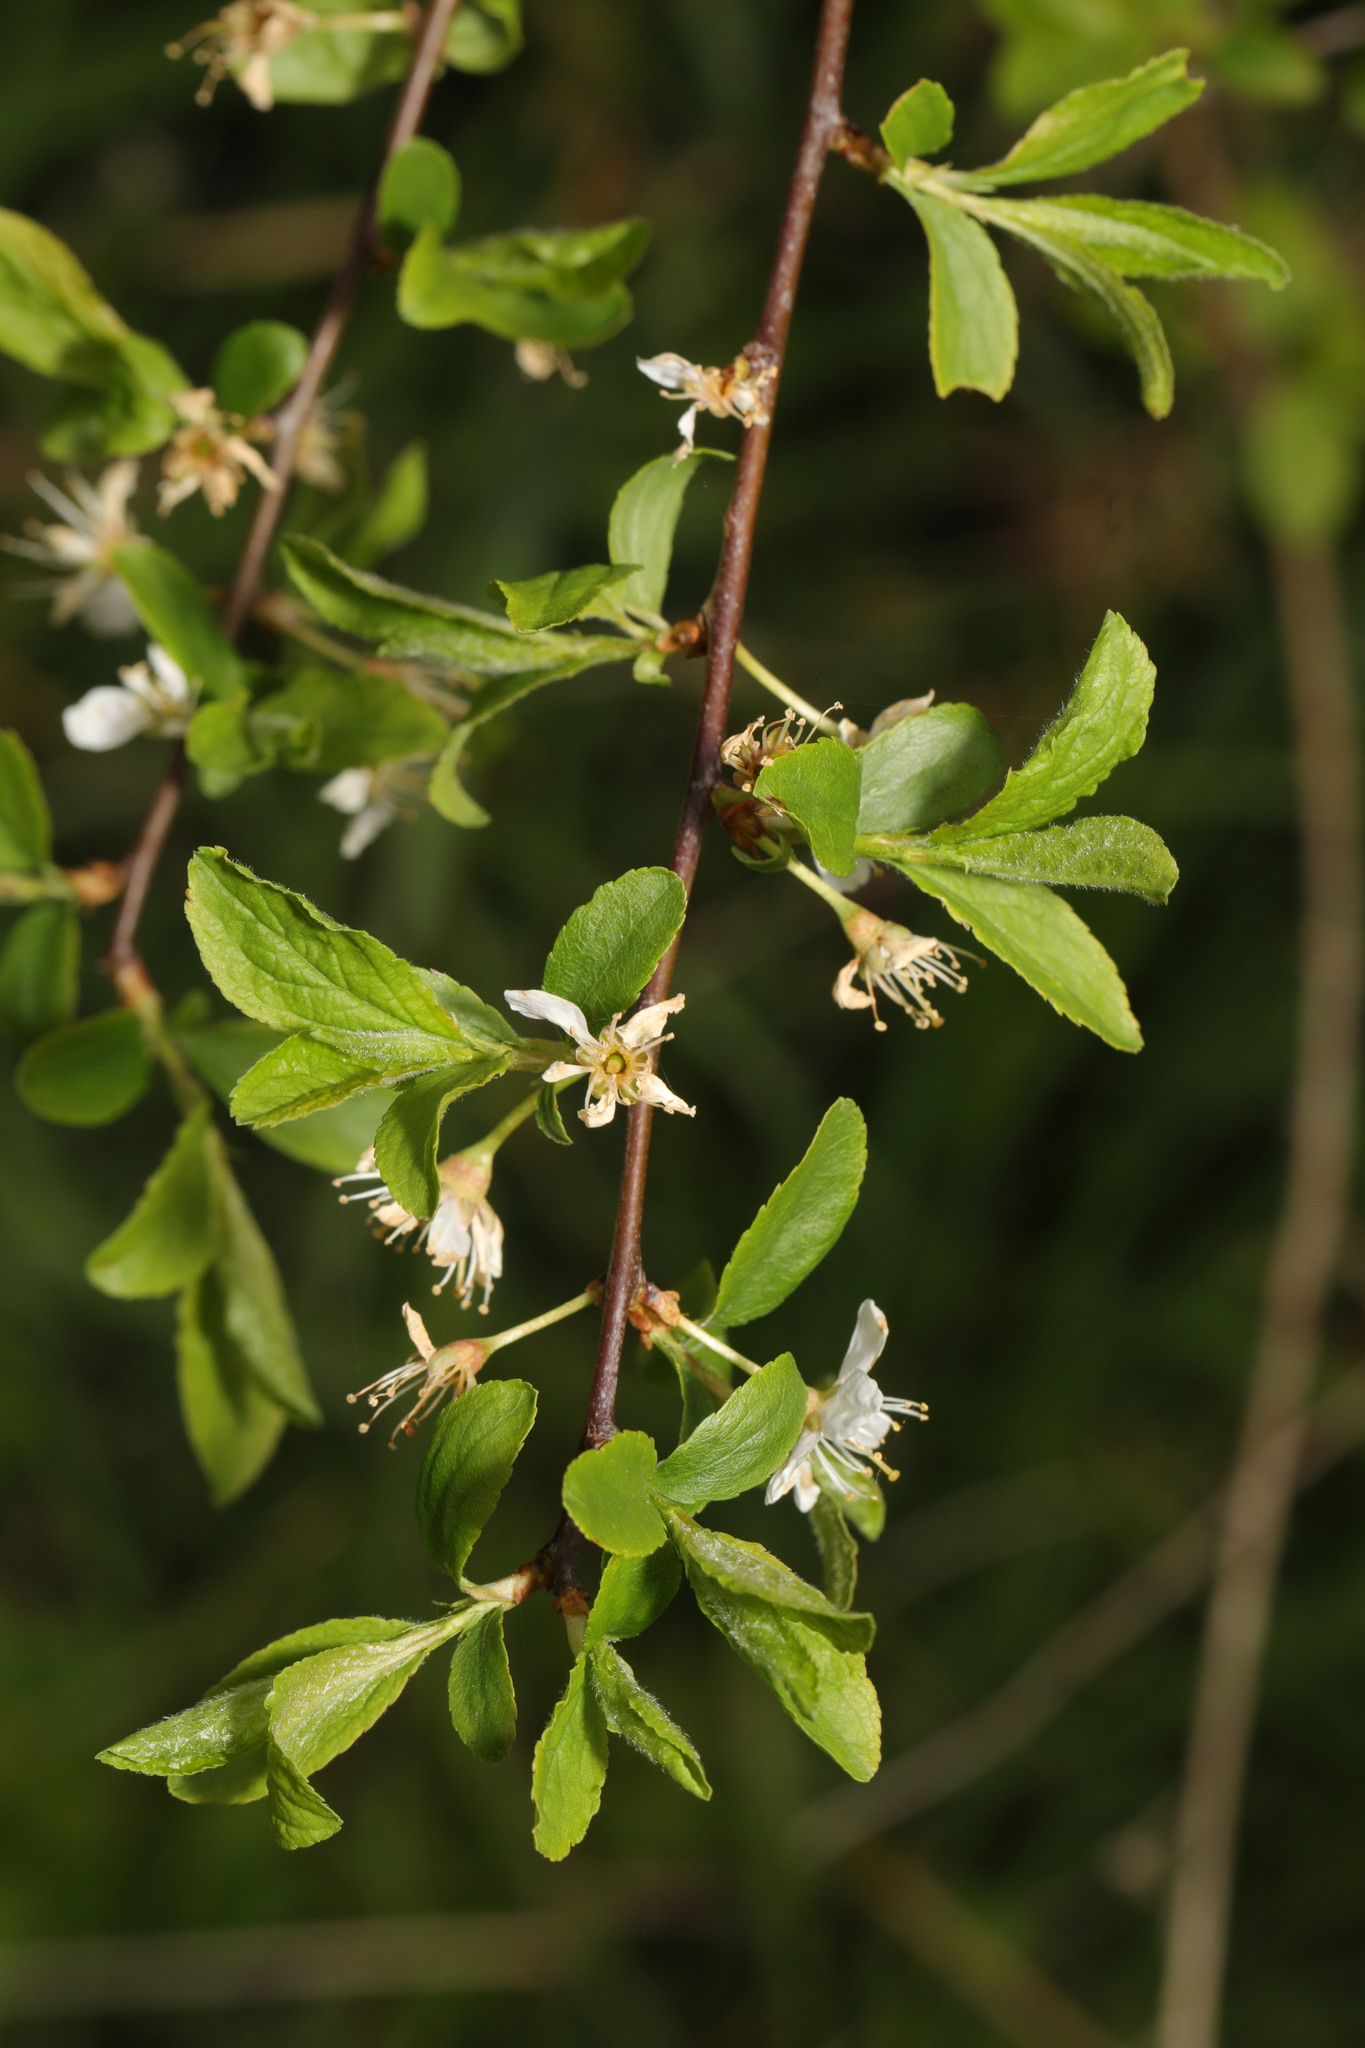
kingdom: Plantae
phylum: Tracheophyta
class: Magnoliopsida
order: Rosales
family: Rosaceae
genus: Prunus
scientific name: Prunus spinosa
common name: Blackthorn
